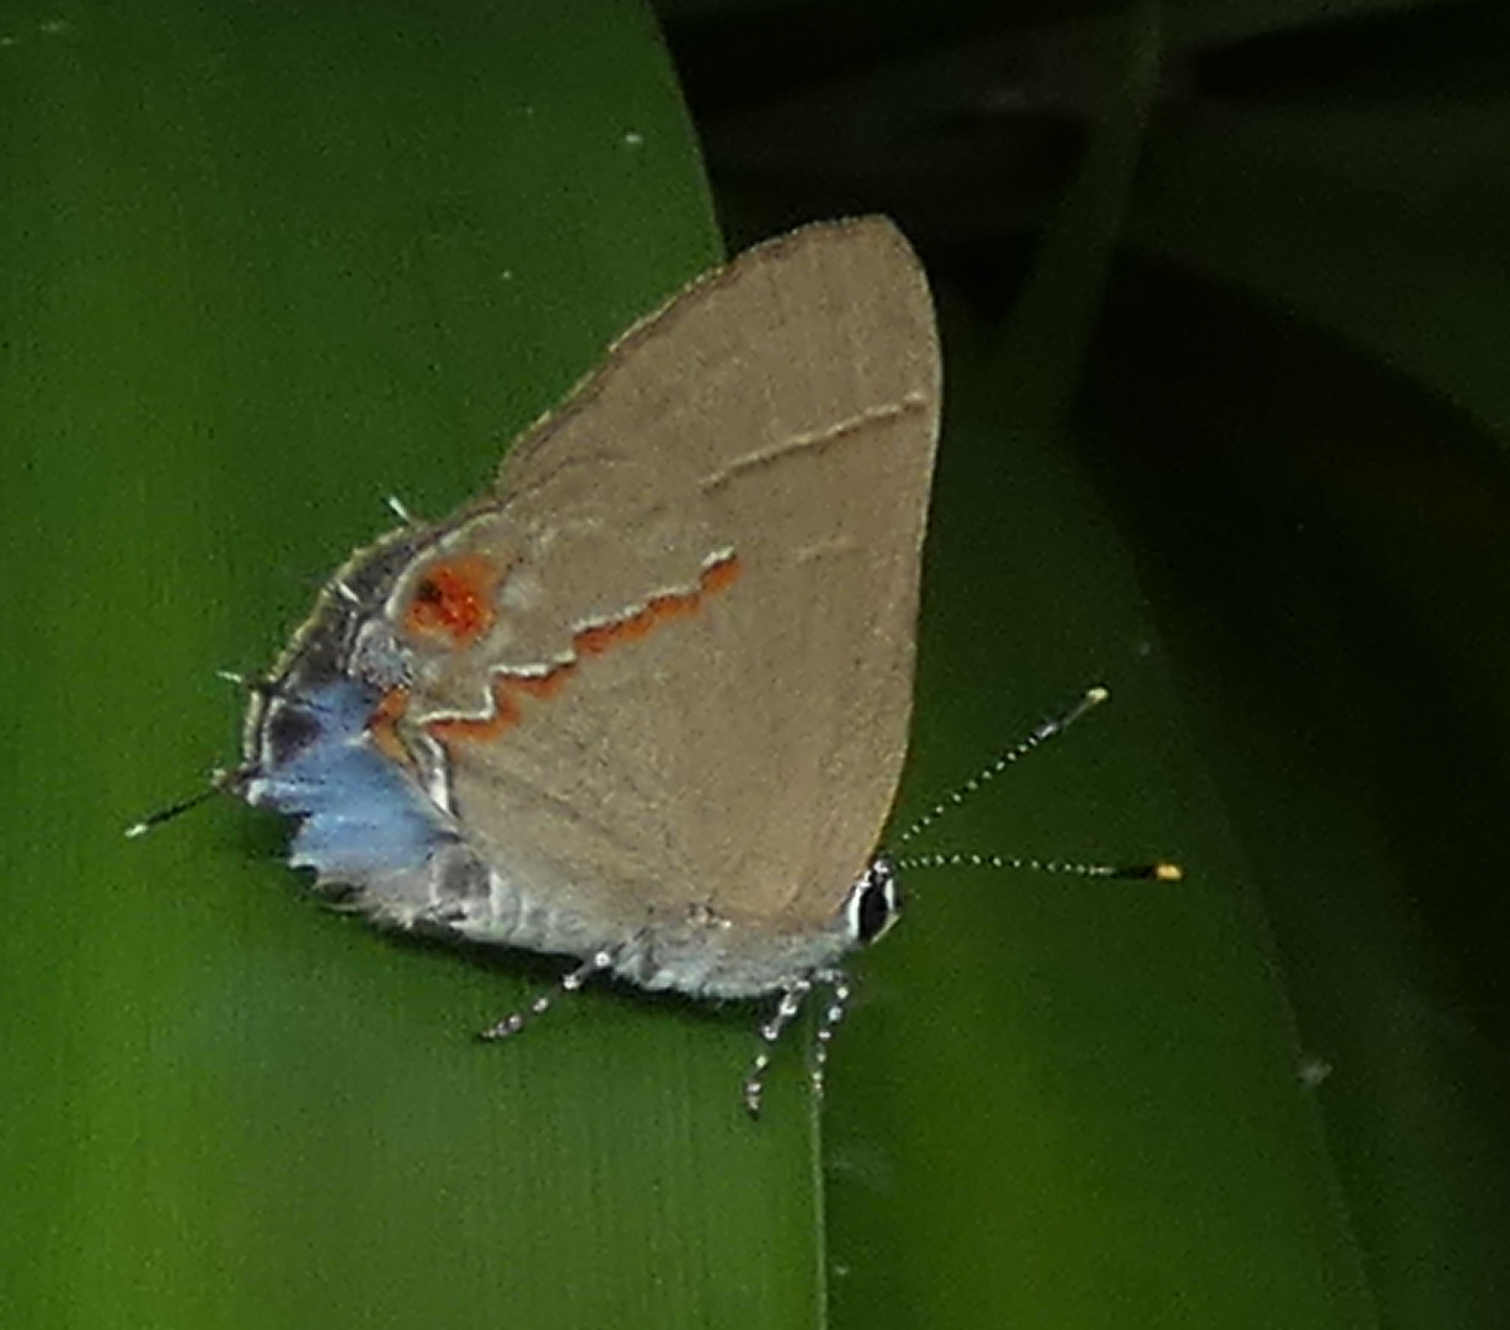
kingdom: Animalia
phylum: Arthropoda
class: Insecta
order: Lepidoptera
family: Lycaenidae
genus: Thecla
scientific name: Thecla syllis
